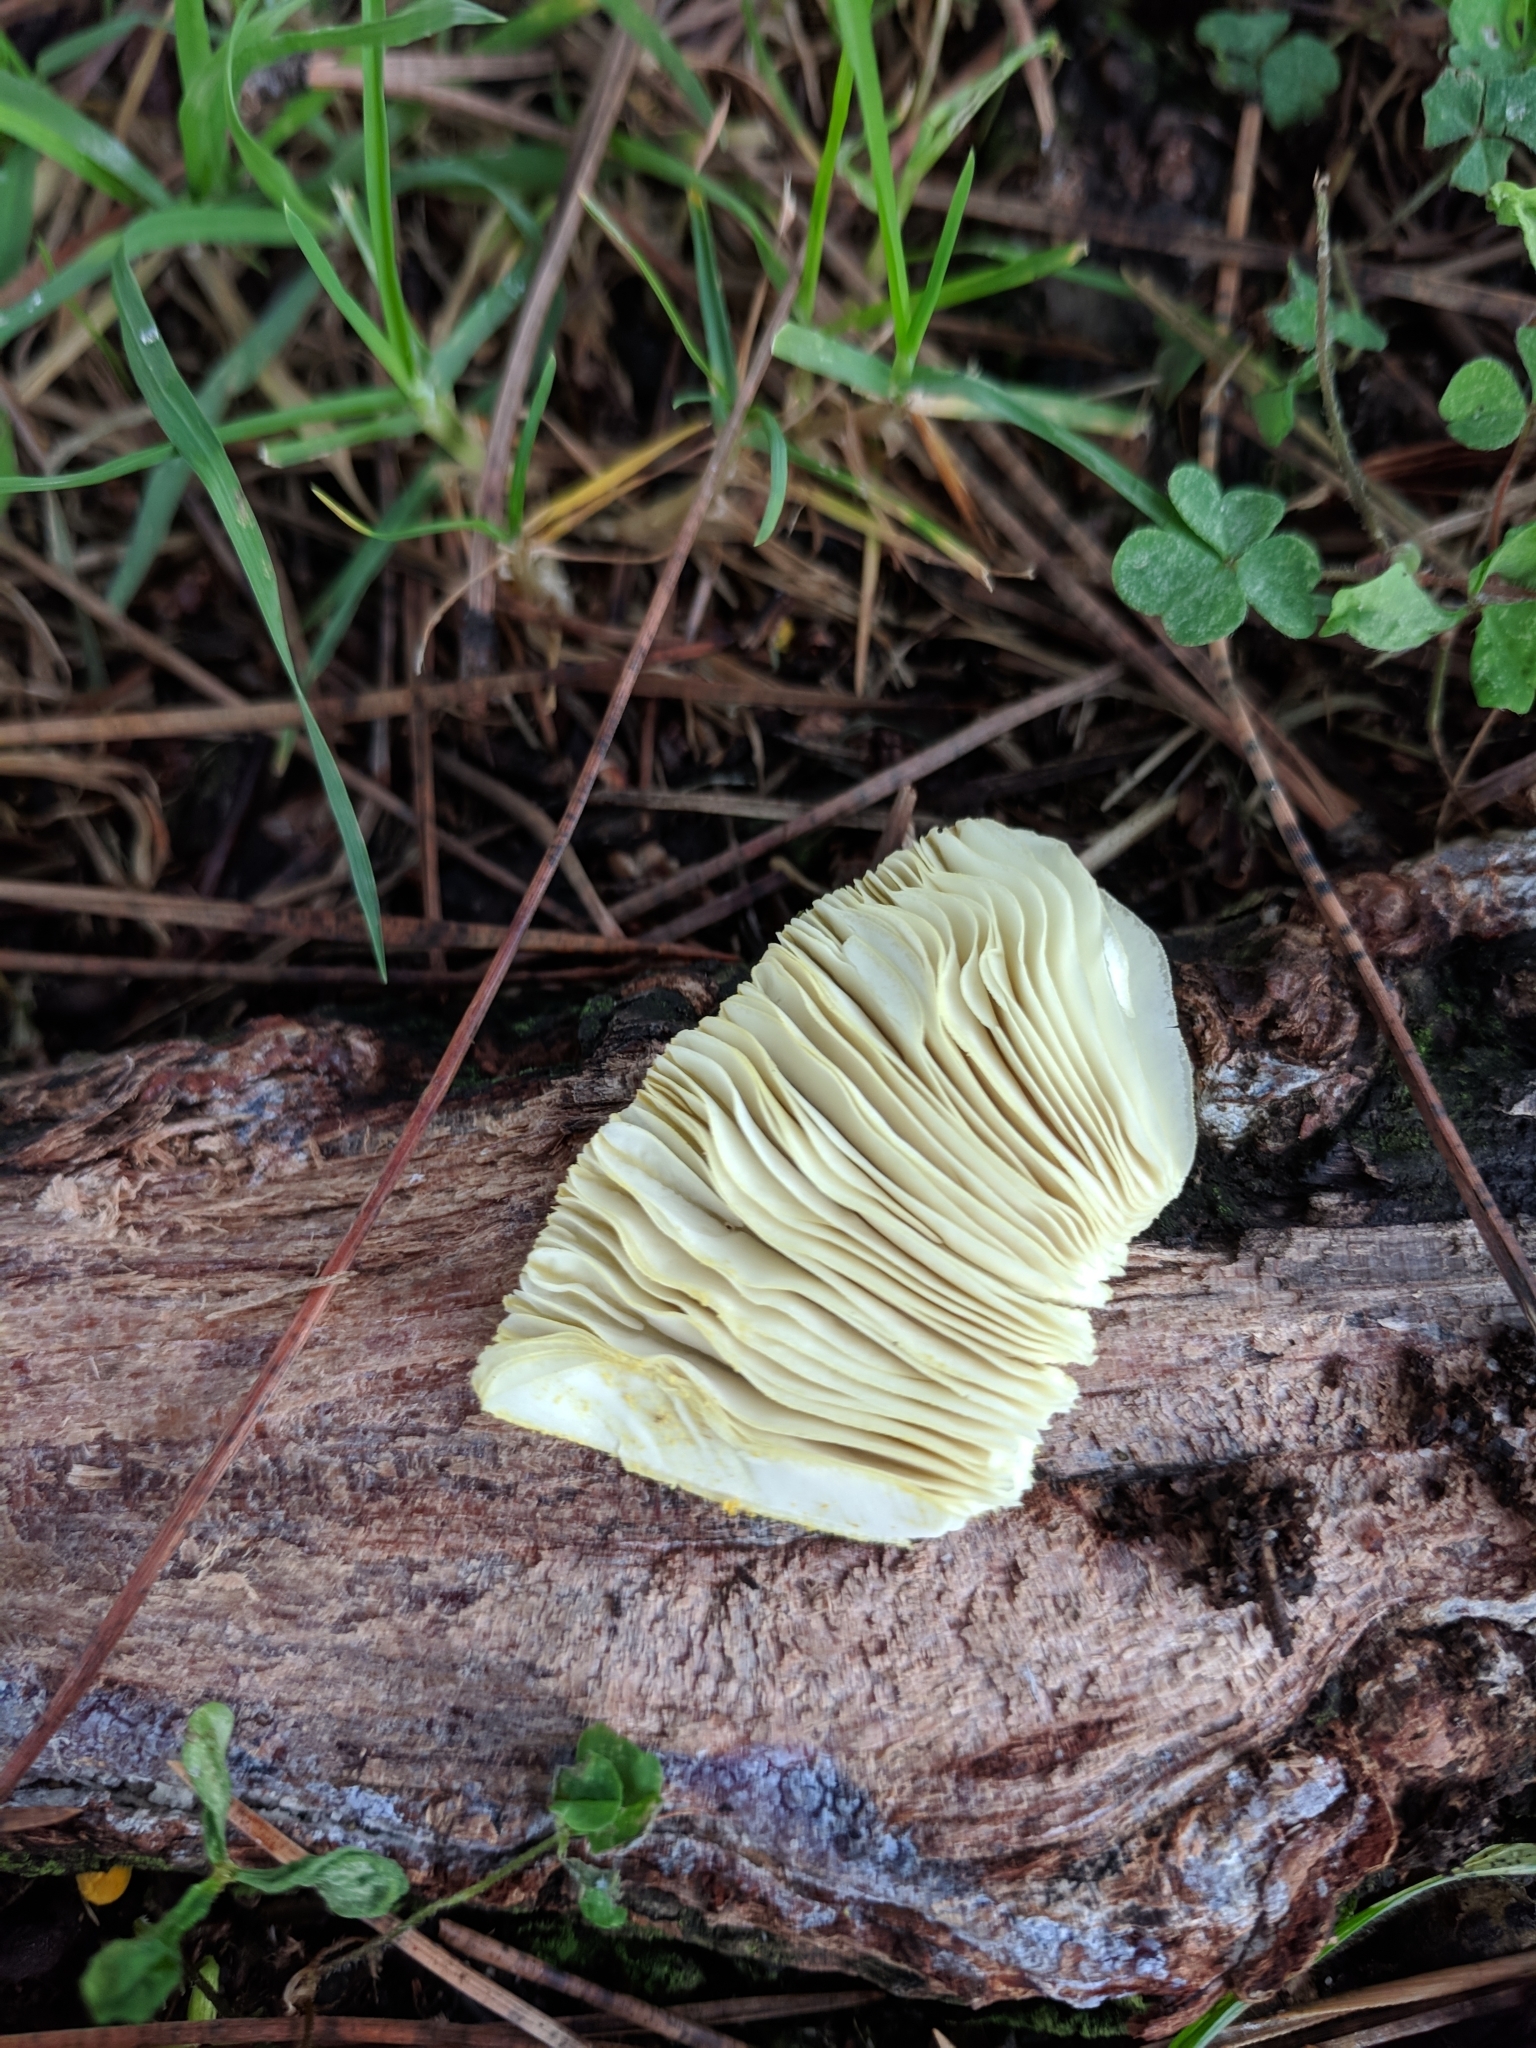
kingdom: Fungi
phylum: Basidiomycota
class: Agaricomycetes
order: Agaricales
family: Agaricaceae
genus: Leucocoprinus
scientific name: Leucocoprinus birnbaumii
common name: Plantpot dapperling
